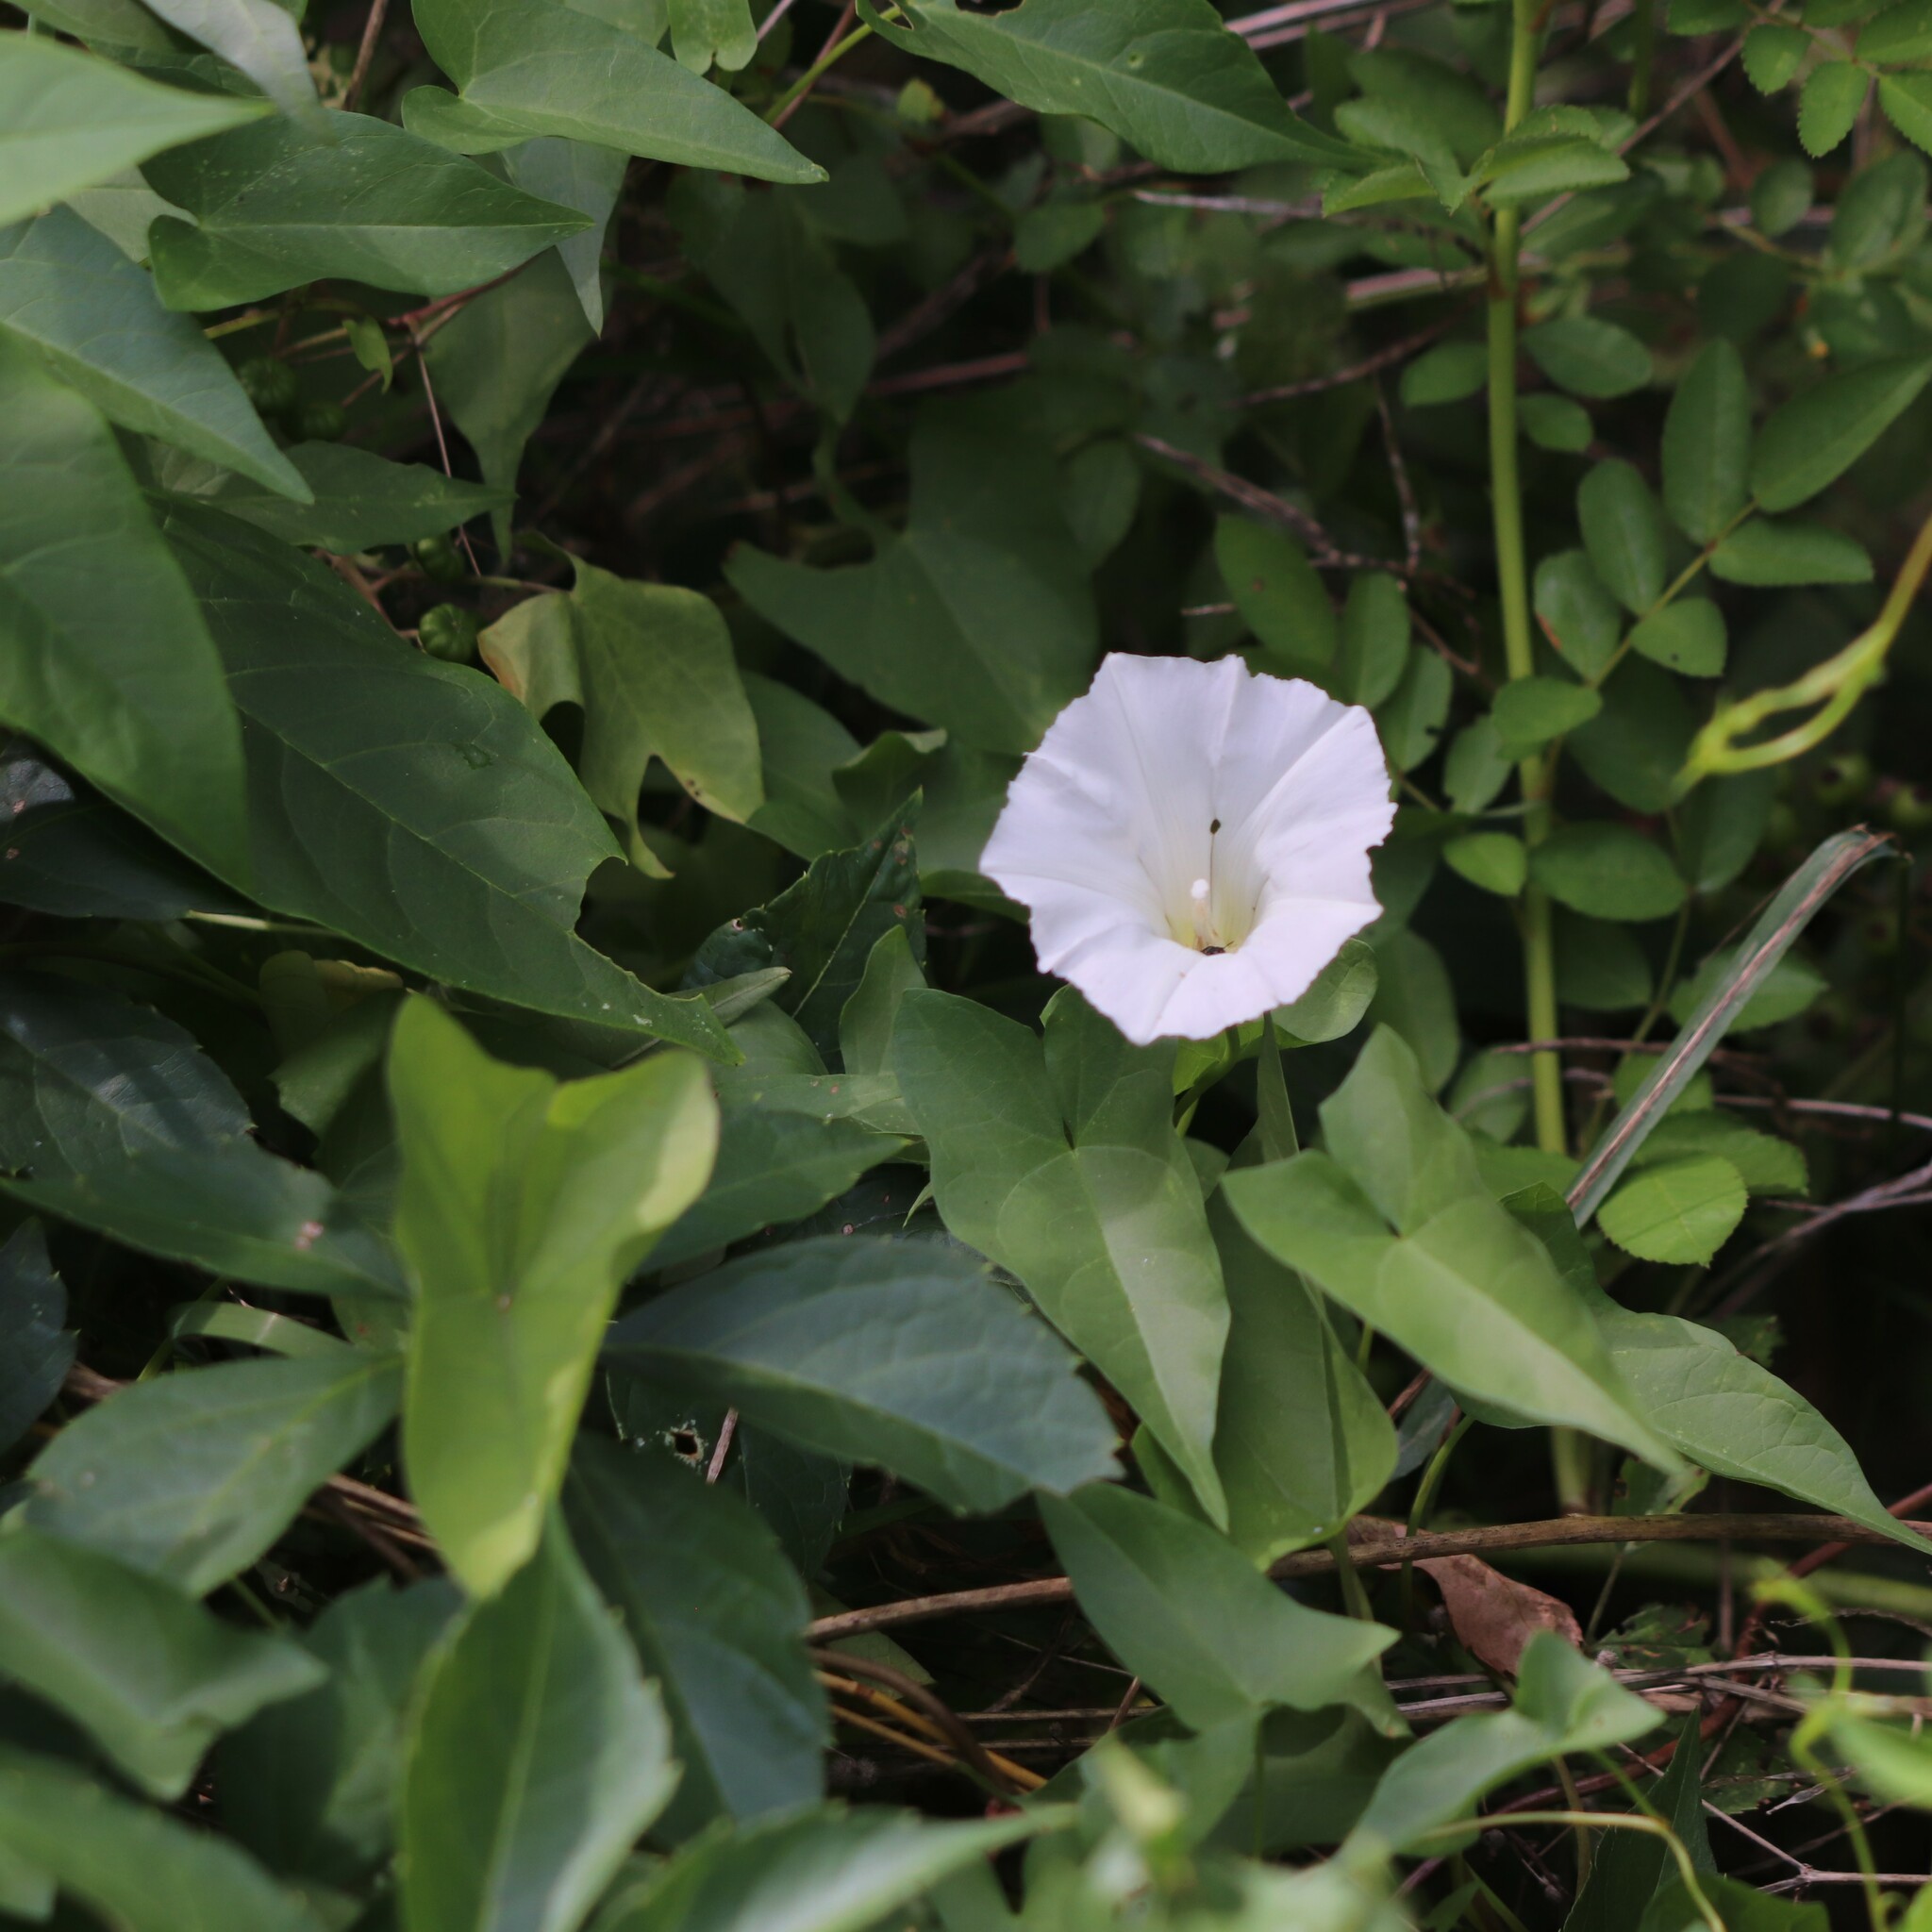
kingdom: Plantae
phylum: Tracheophyta
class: Magnoliopsida
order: Solanales
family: Convolvulaceae
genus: Calystegia
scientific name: Calystegia sepium
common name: Hedge bindweed
